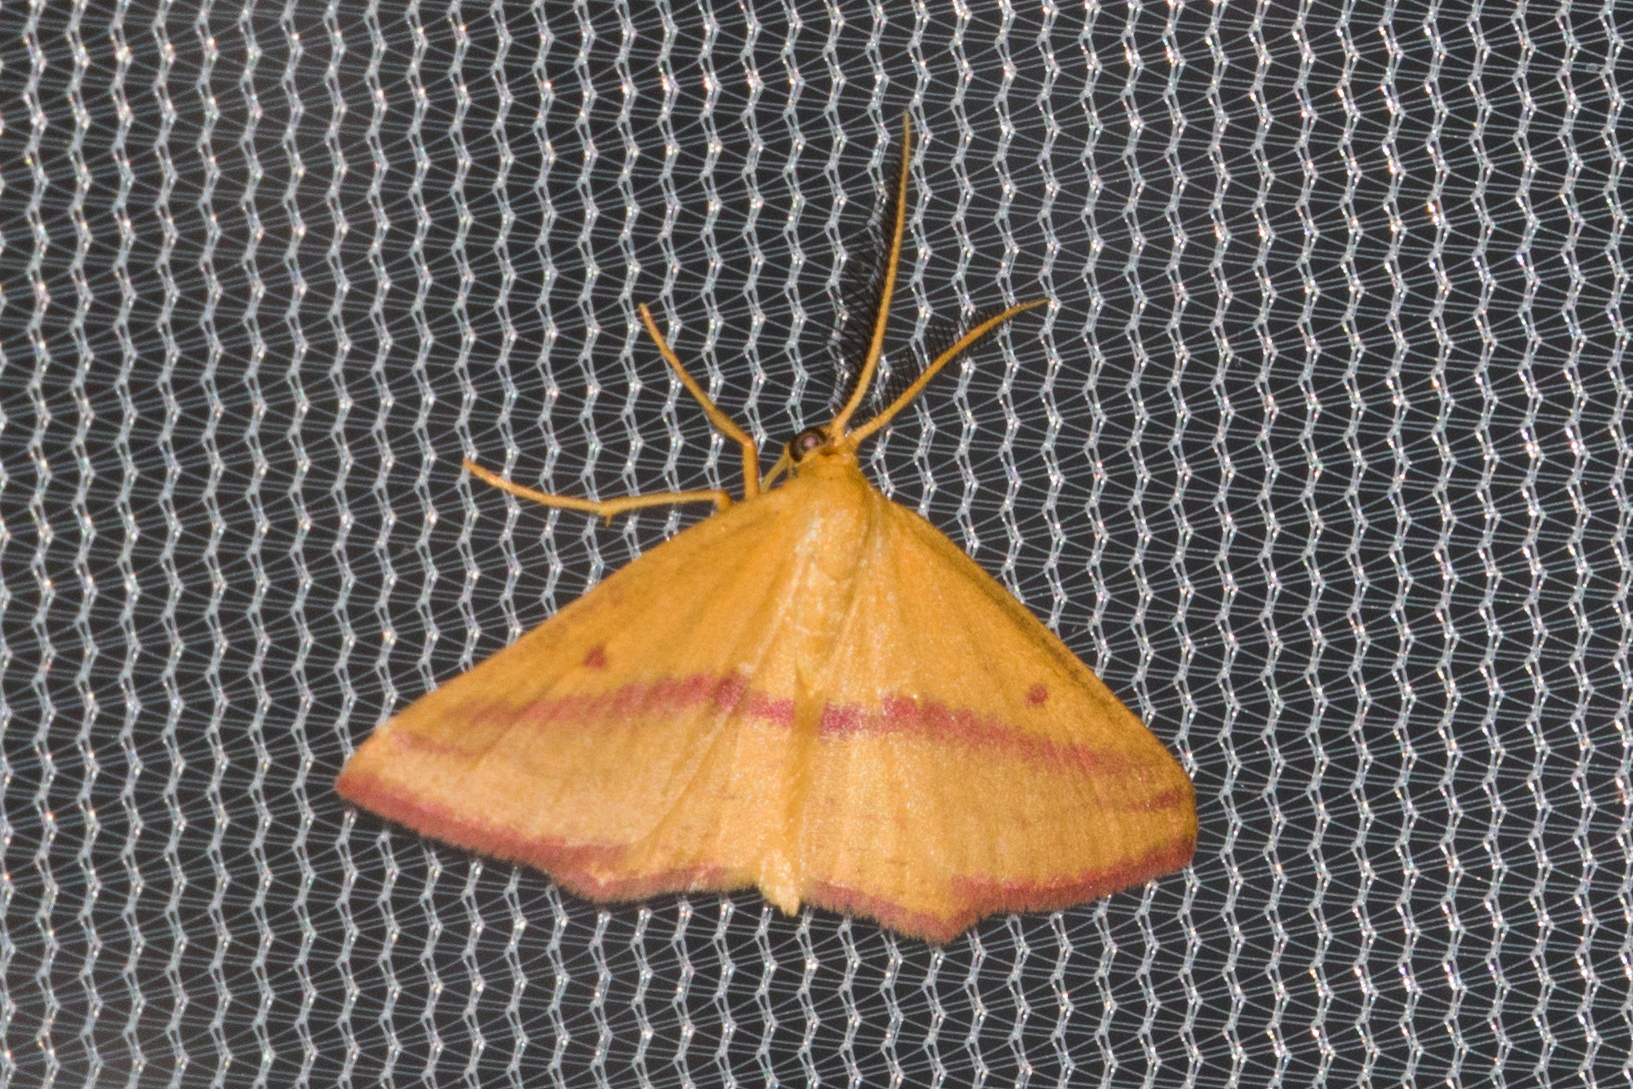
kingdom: Animalia
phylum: Arthropoda
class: Insecta
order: Lepidoptera
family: Geometridae
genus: Haematopis
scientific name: Haematopis grataria
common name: Chickweed geometer
